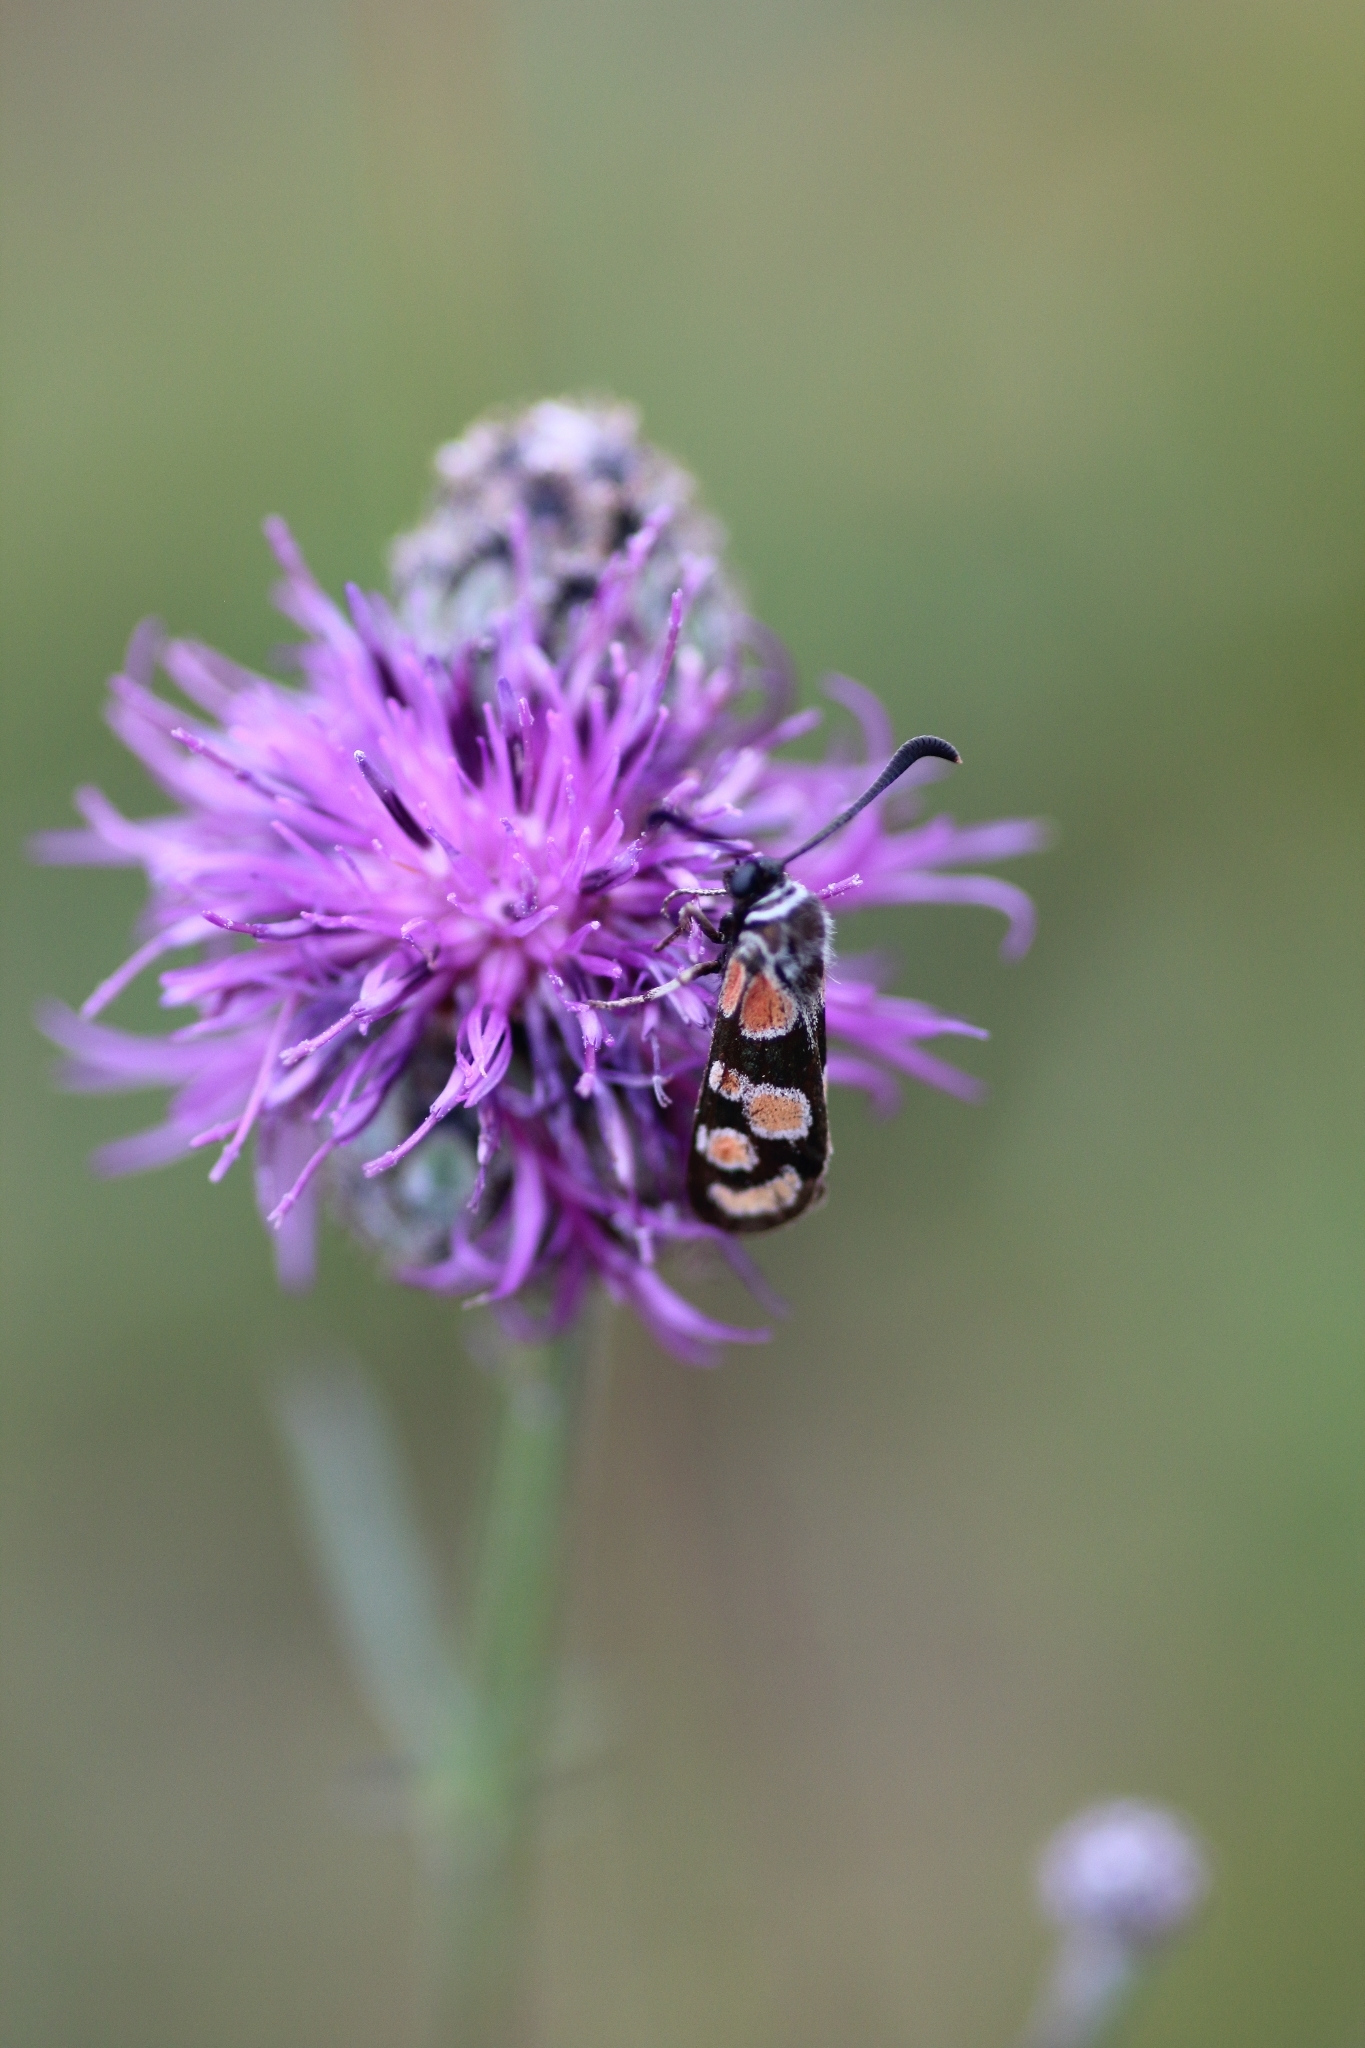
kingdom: Animalia
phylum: Arthropoda
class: Insecta
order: Lepidoptera
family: Zygaenidae
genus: Zygaena
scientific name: Zygaena carniolica
